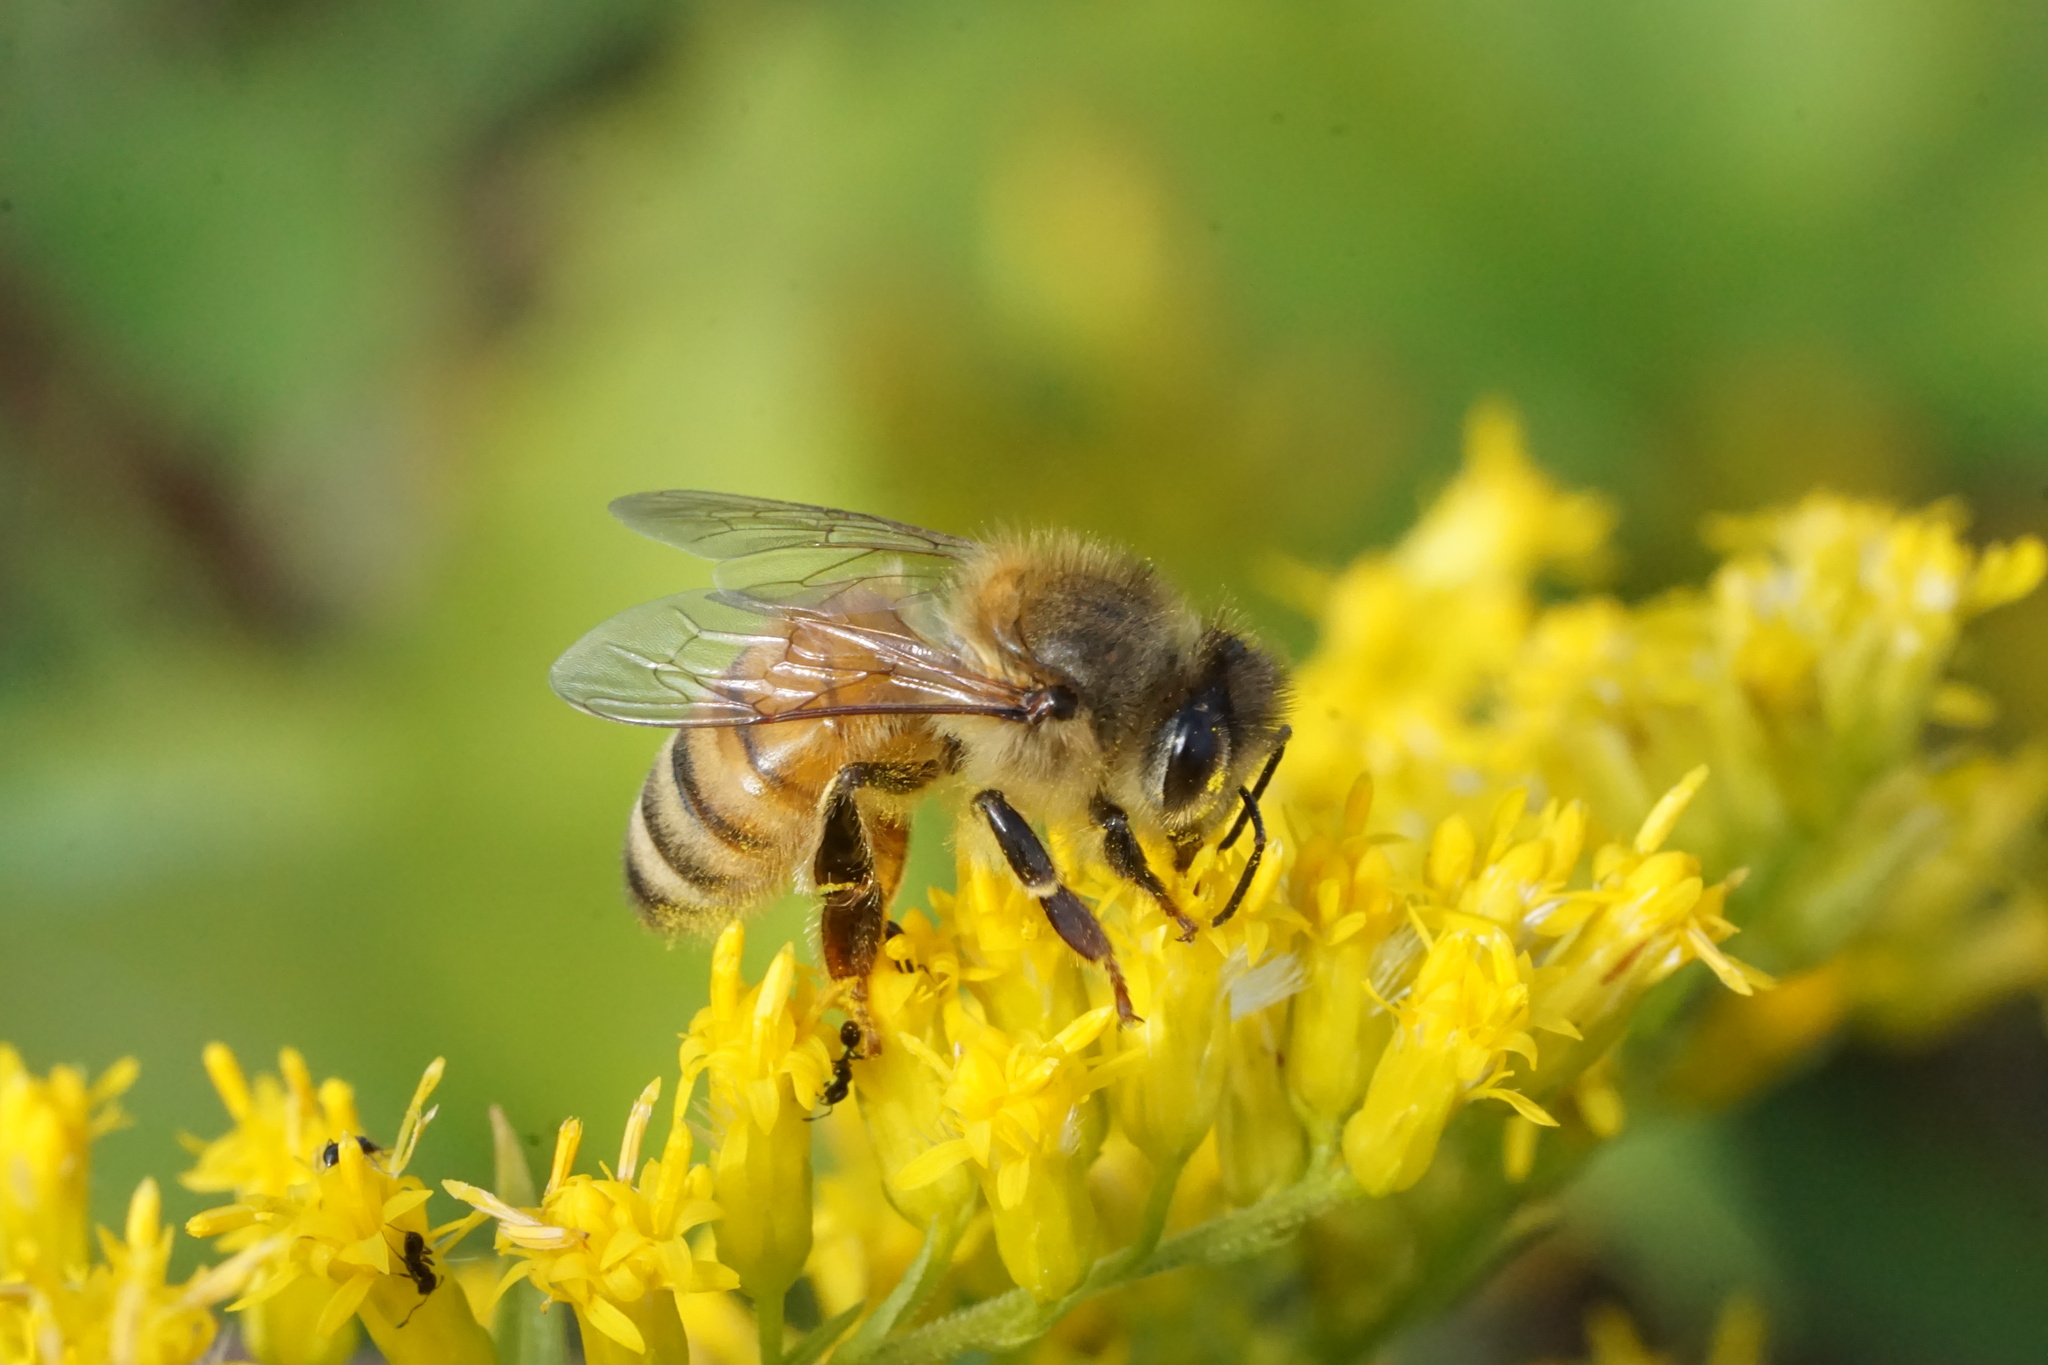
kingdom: Animalia
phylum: Arthropoda
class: Insecta
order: Hymenoptera
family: Apidae
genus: Apis
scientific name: Apis mellifera
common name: Honey bee
